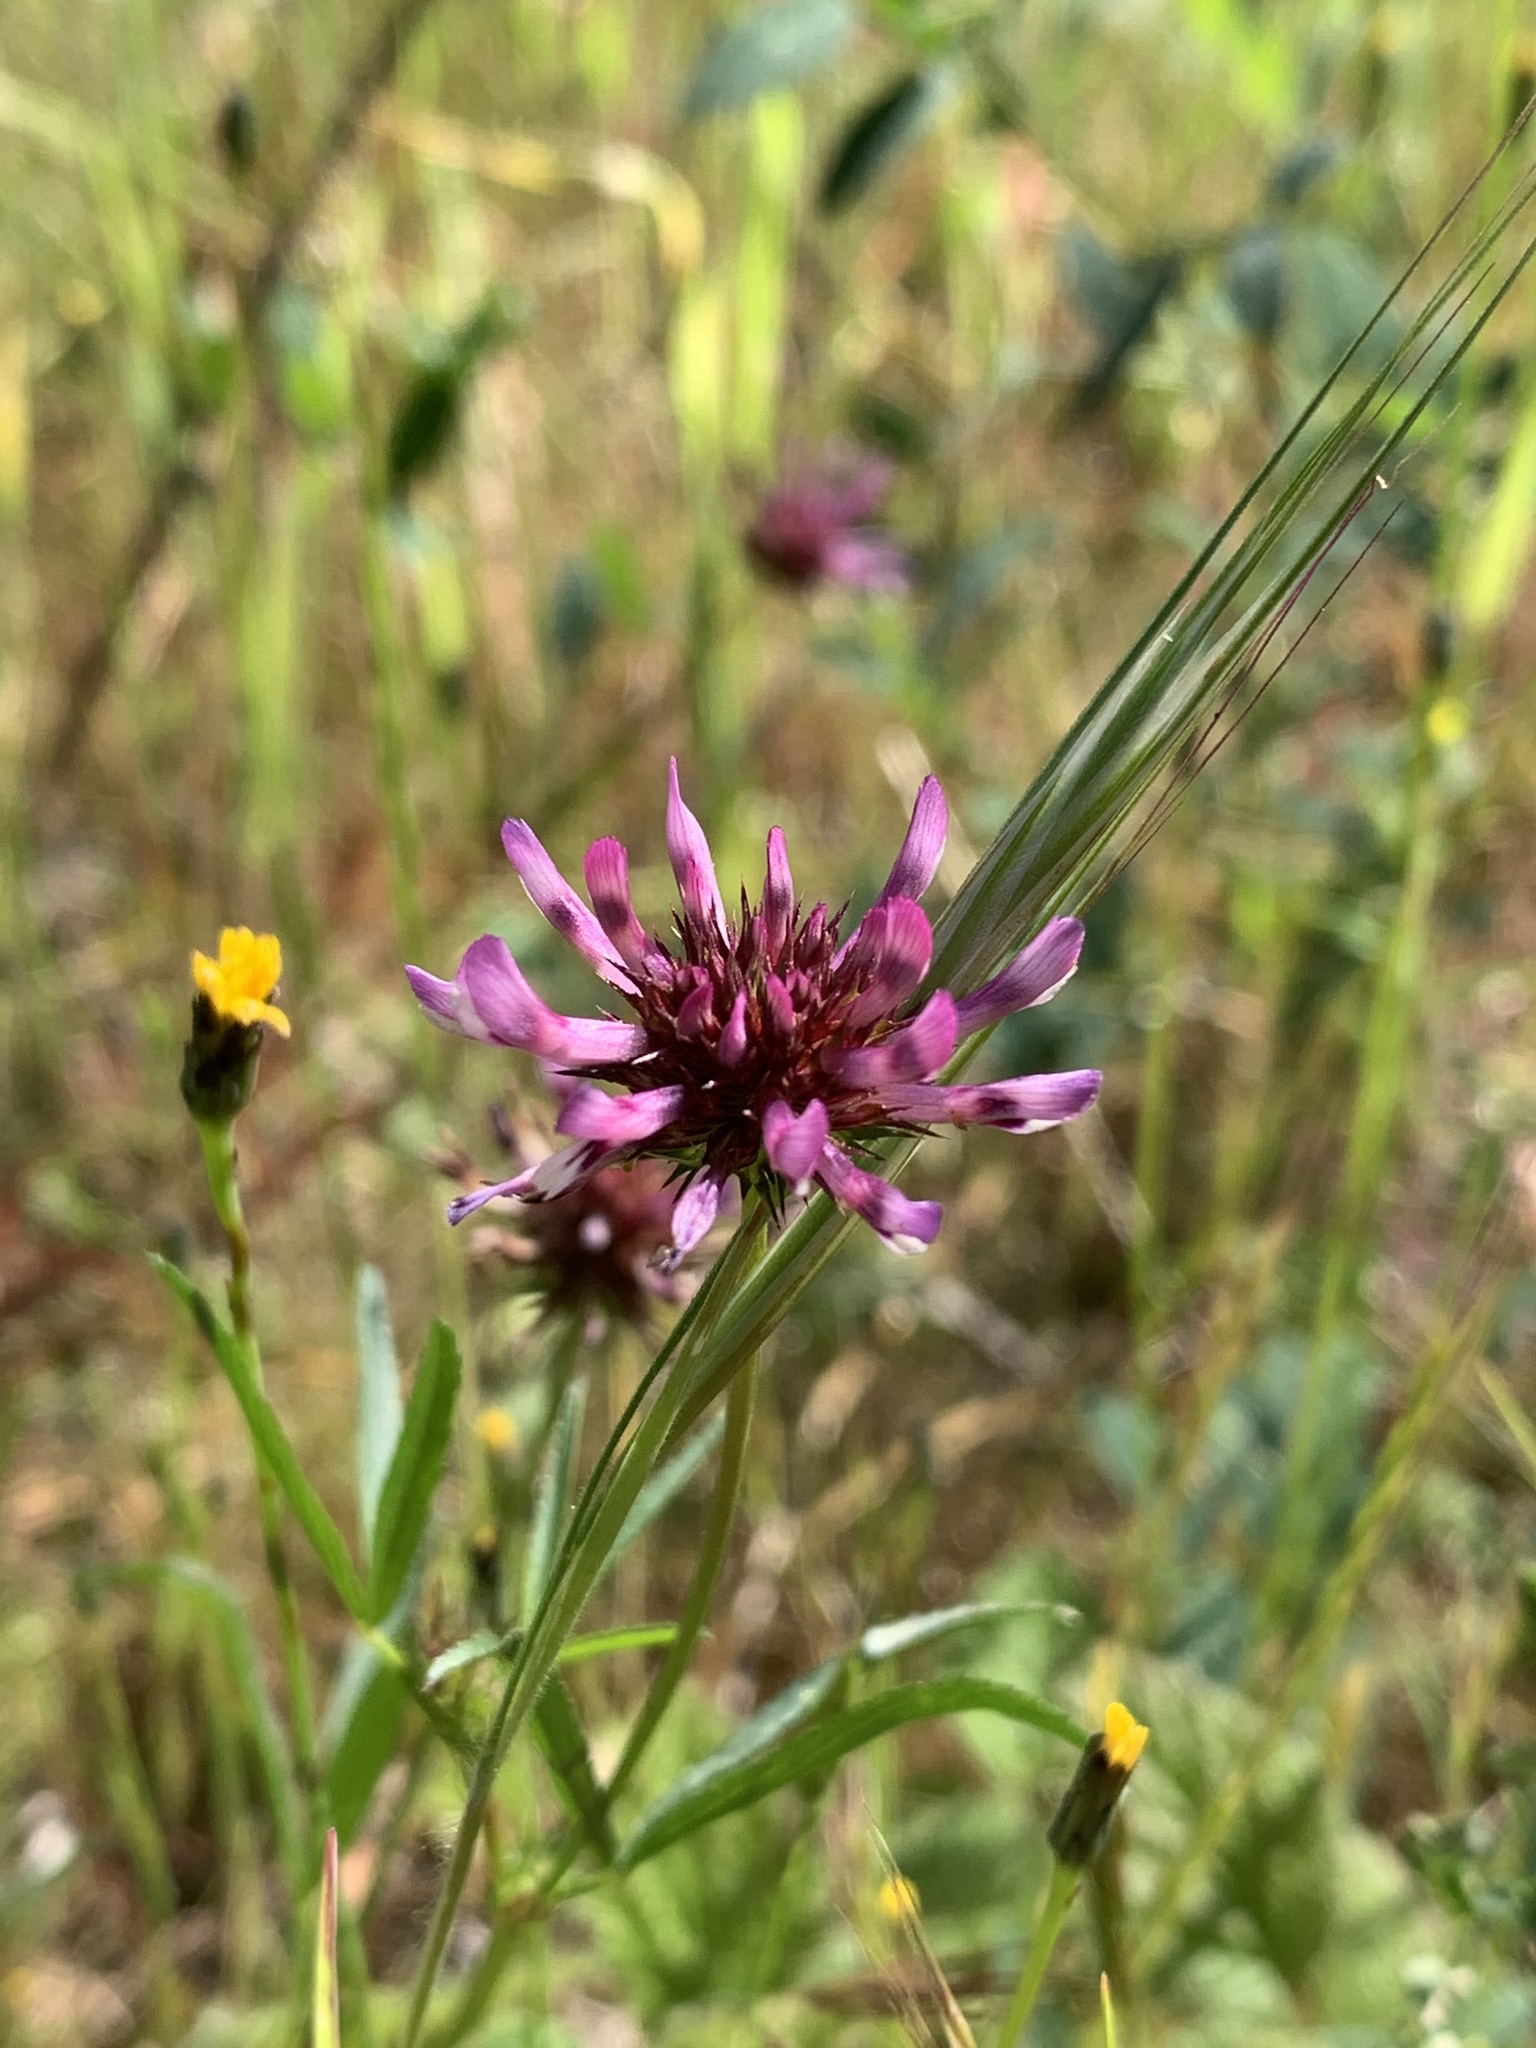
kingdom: Plantae
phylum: Tracheophyta
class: Magnoliopsida
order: Fabales
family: Fabaceae
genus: Trifolium
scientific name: Trifolium willdenovii
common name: Tomcat clover
